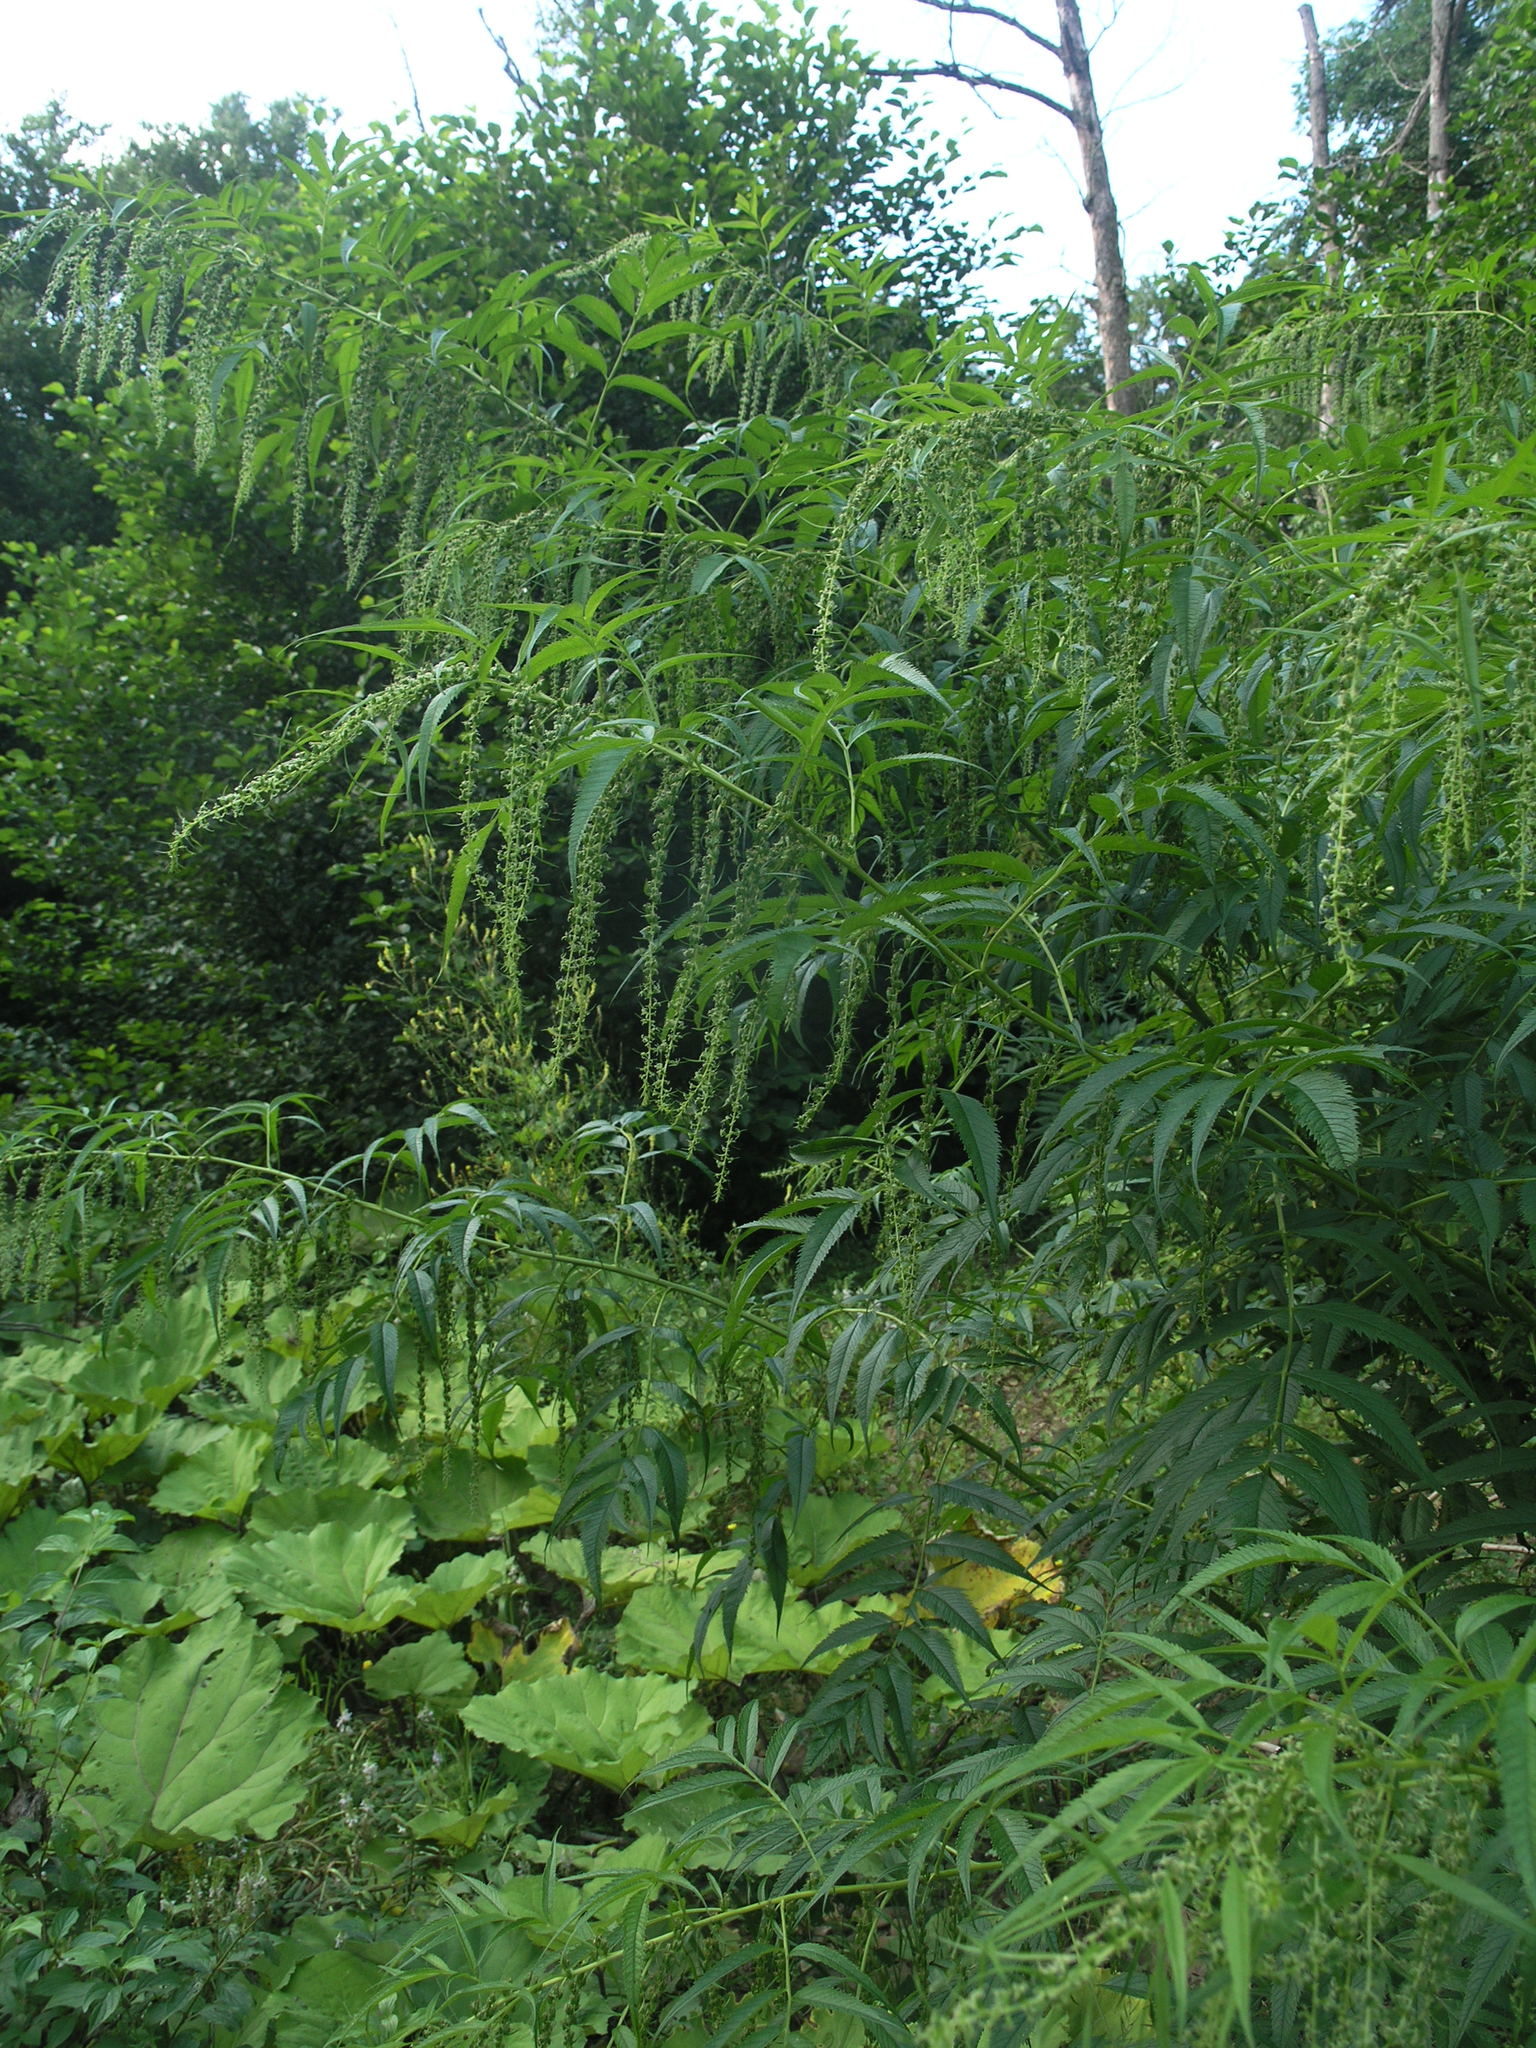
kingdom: Plantae
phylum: Tracheophyta
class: Magnoliopsida
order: Cucurbitales
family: Datiscaceae
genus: Datisca
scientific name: Datisca cannabina
